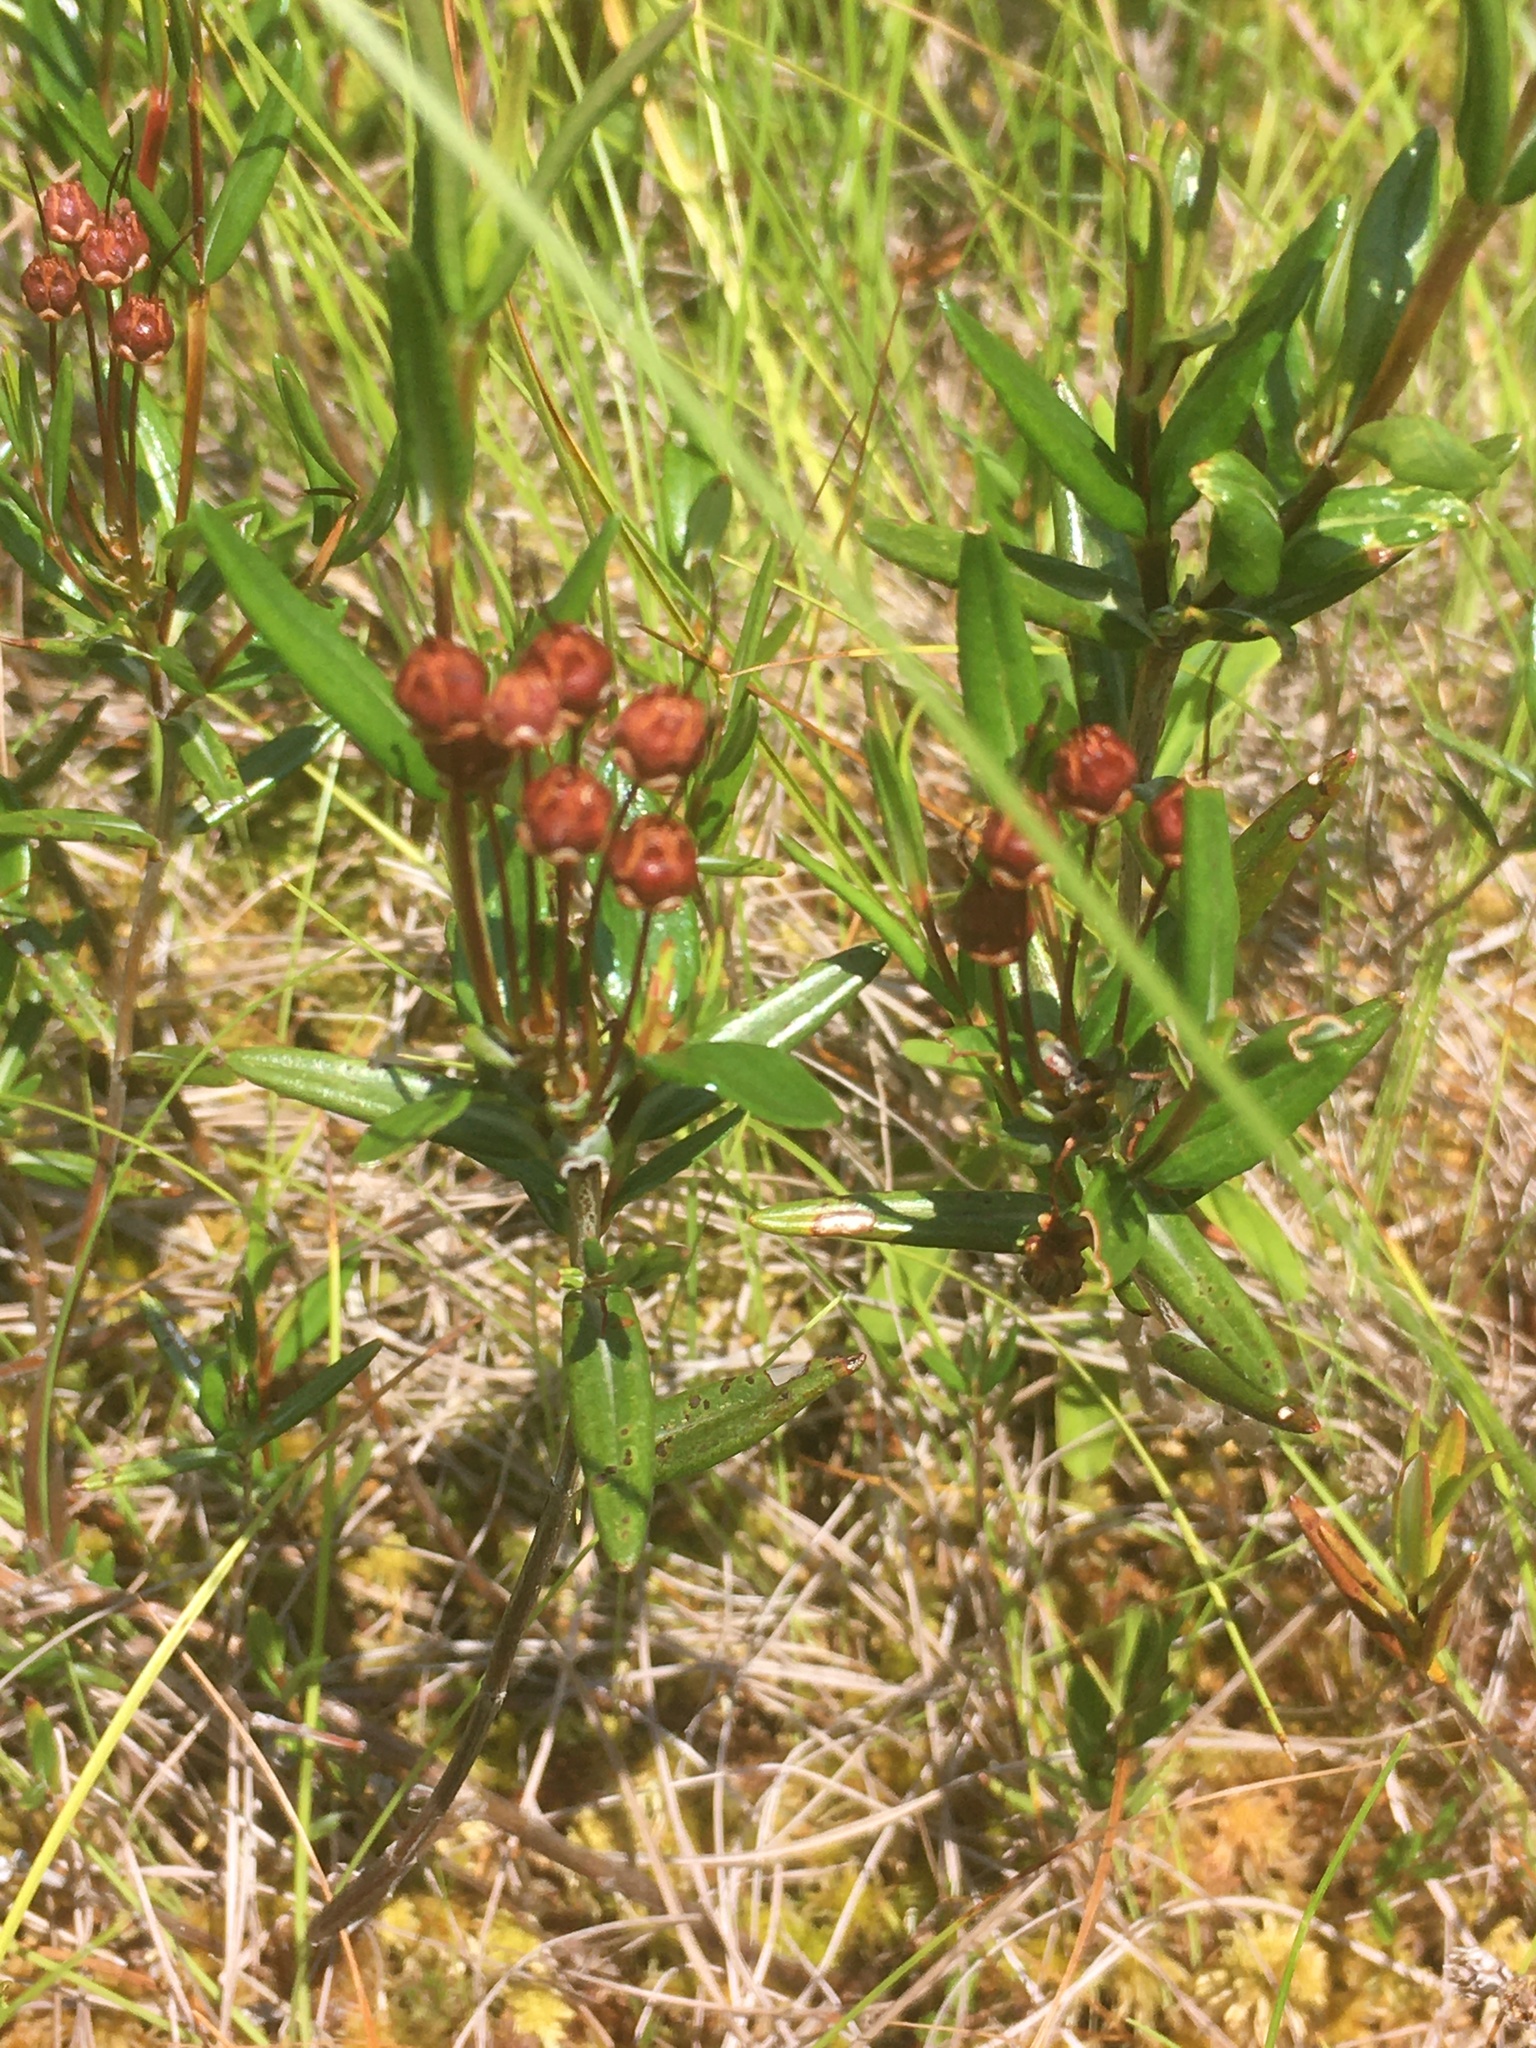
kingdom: Plantae
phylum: Tracheophyta
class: Magnoliopsida
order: Ericales
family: Ericaceae
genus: Kalmia
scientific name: Kalmia polifolia
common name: Bog-laurel
